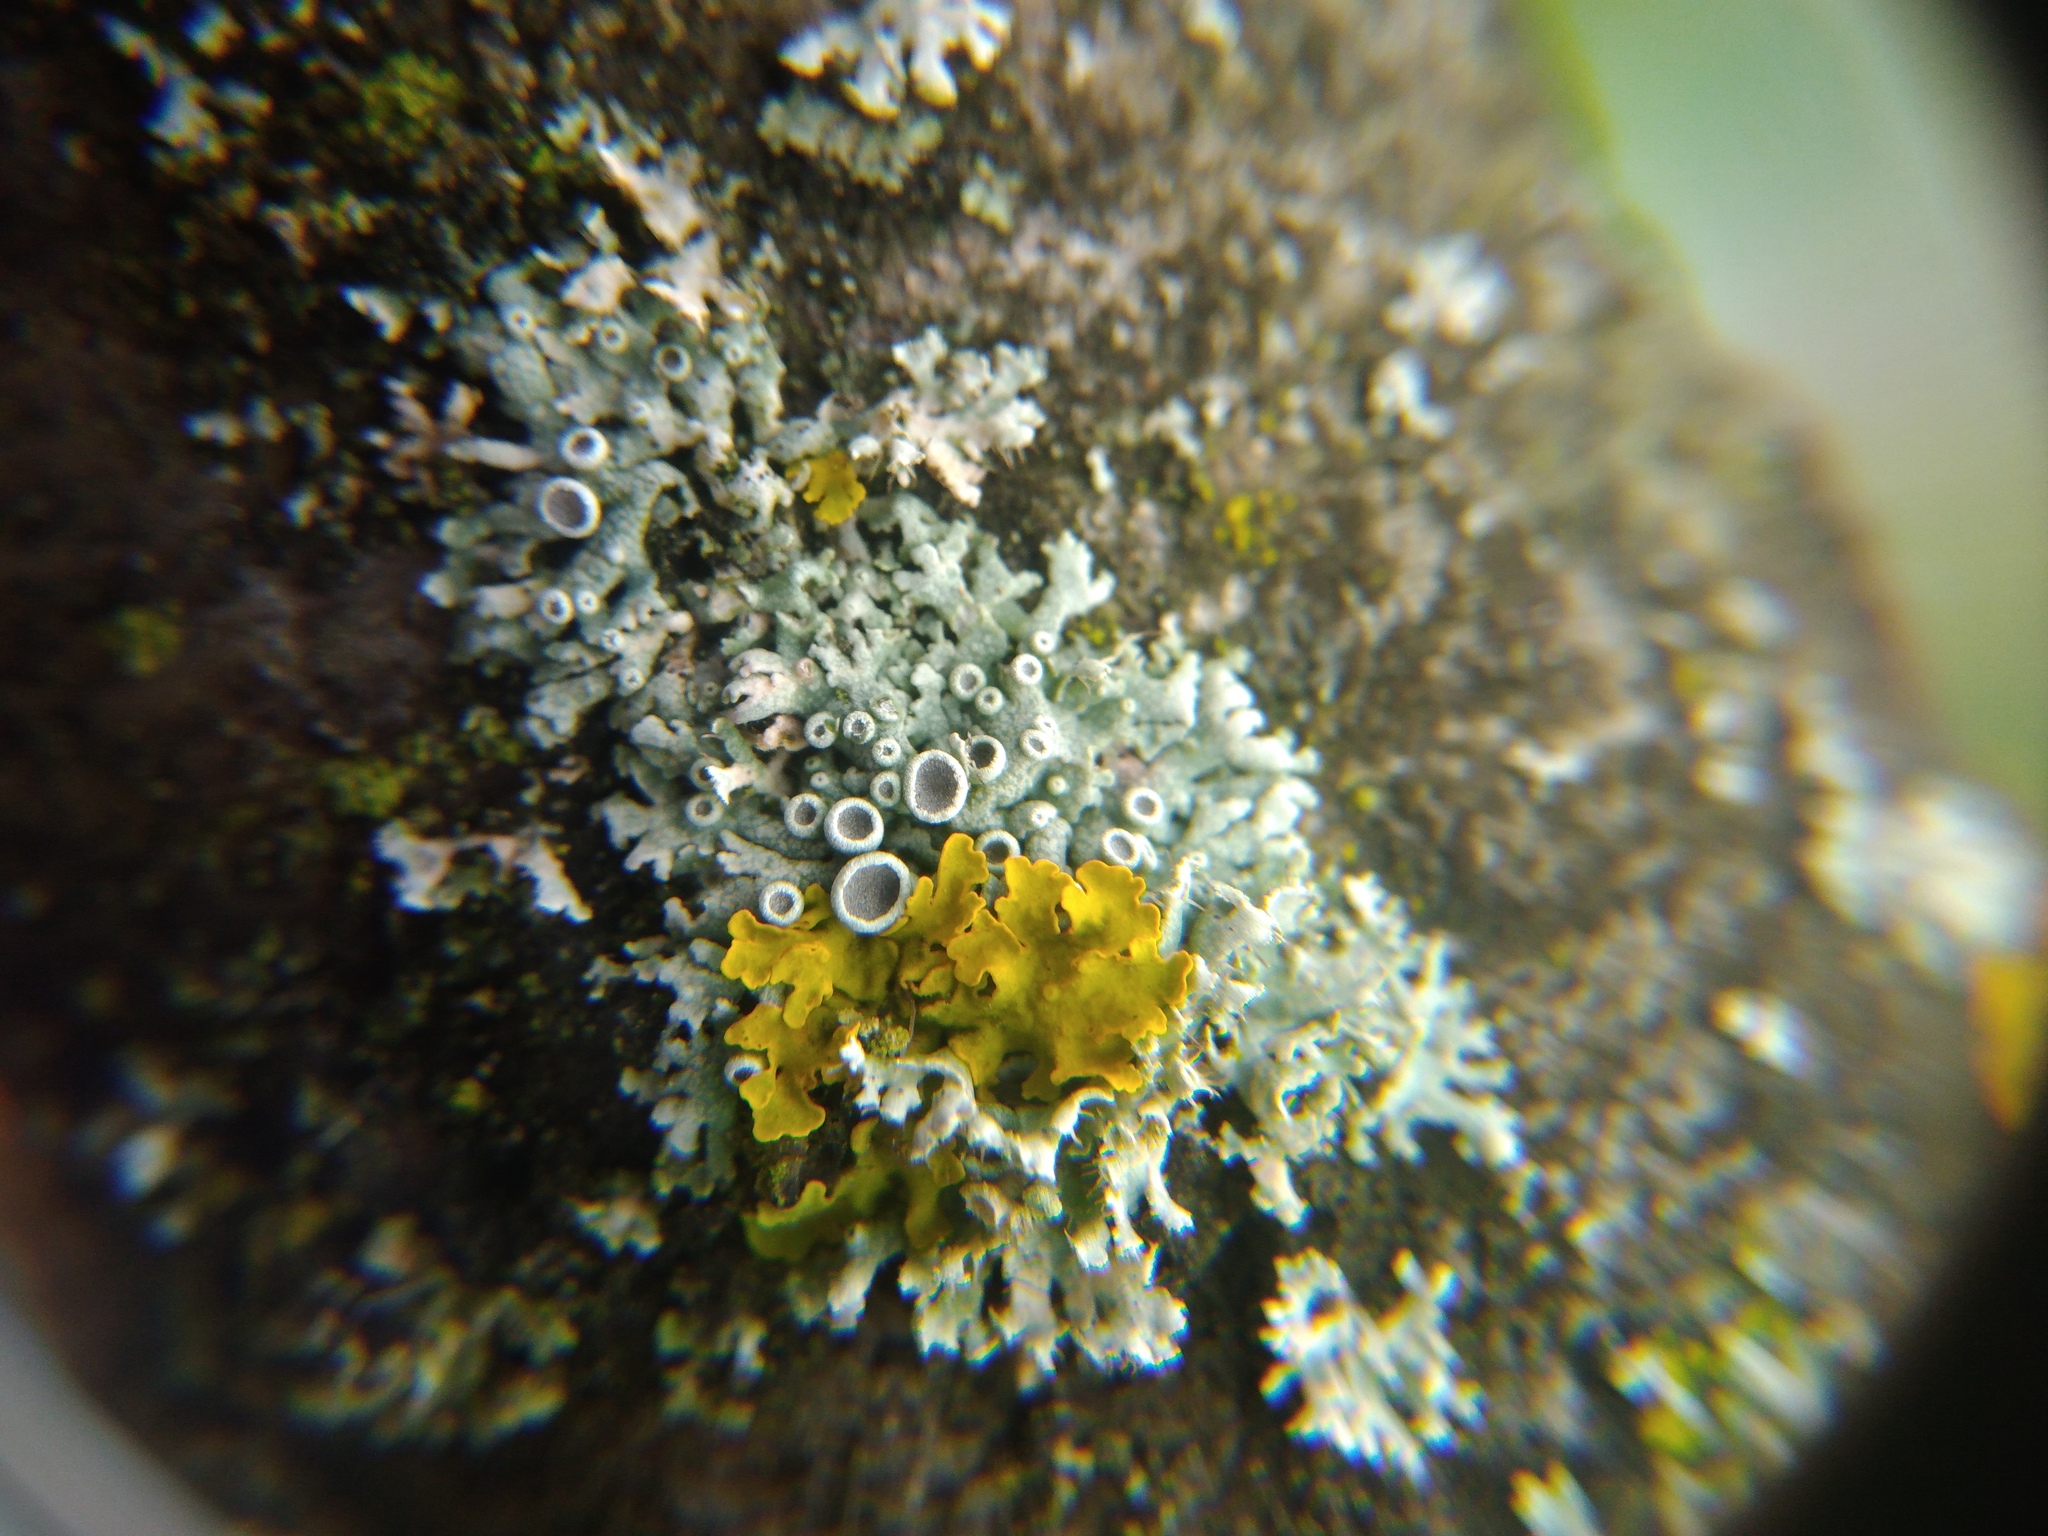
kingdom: Fungi
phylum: Ascomycota
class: Lecanoromycetes
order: Caliciales
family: Physciaceae
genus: Physcia
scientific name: Physcia stellaris
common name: Star rosette lichen
